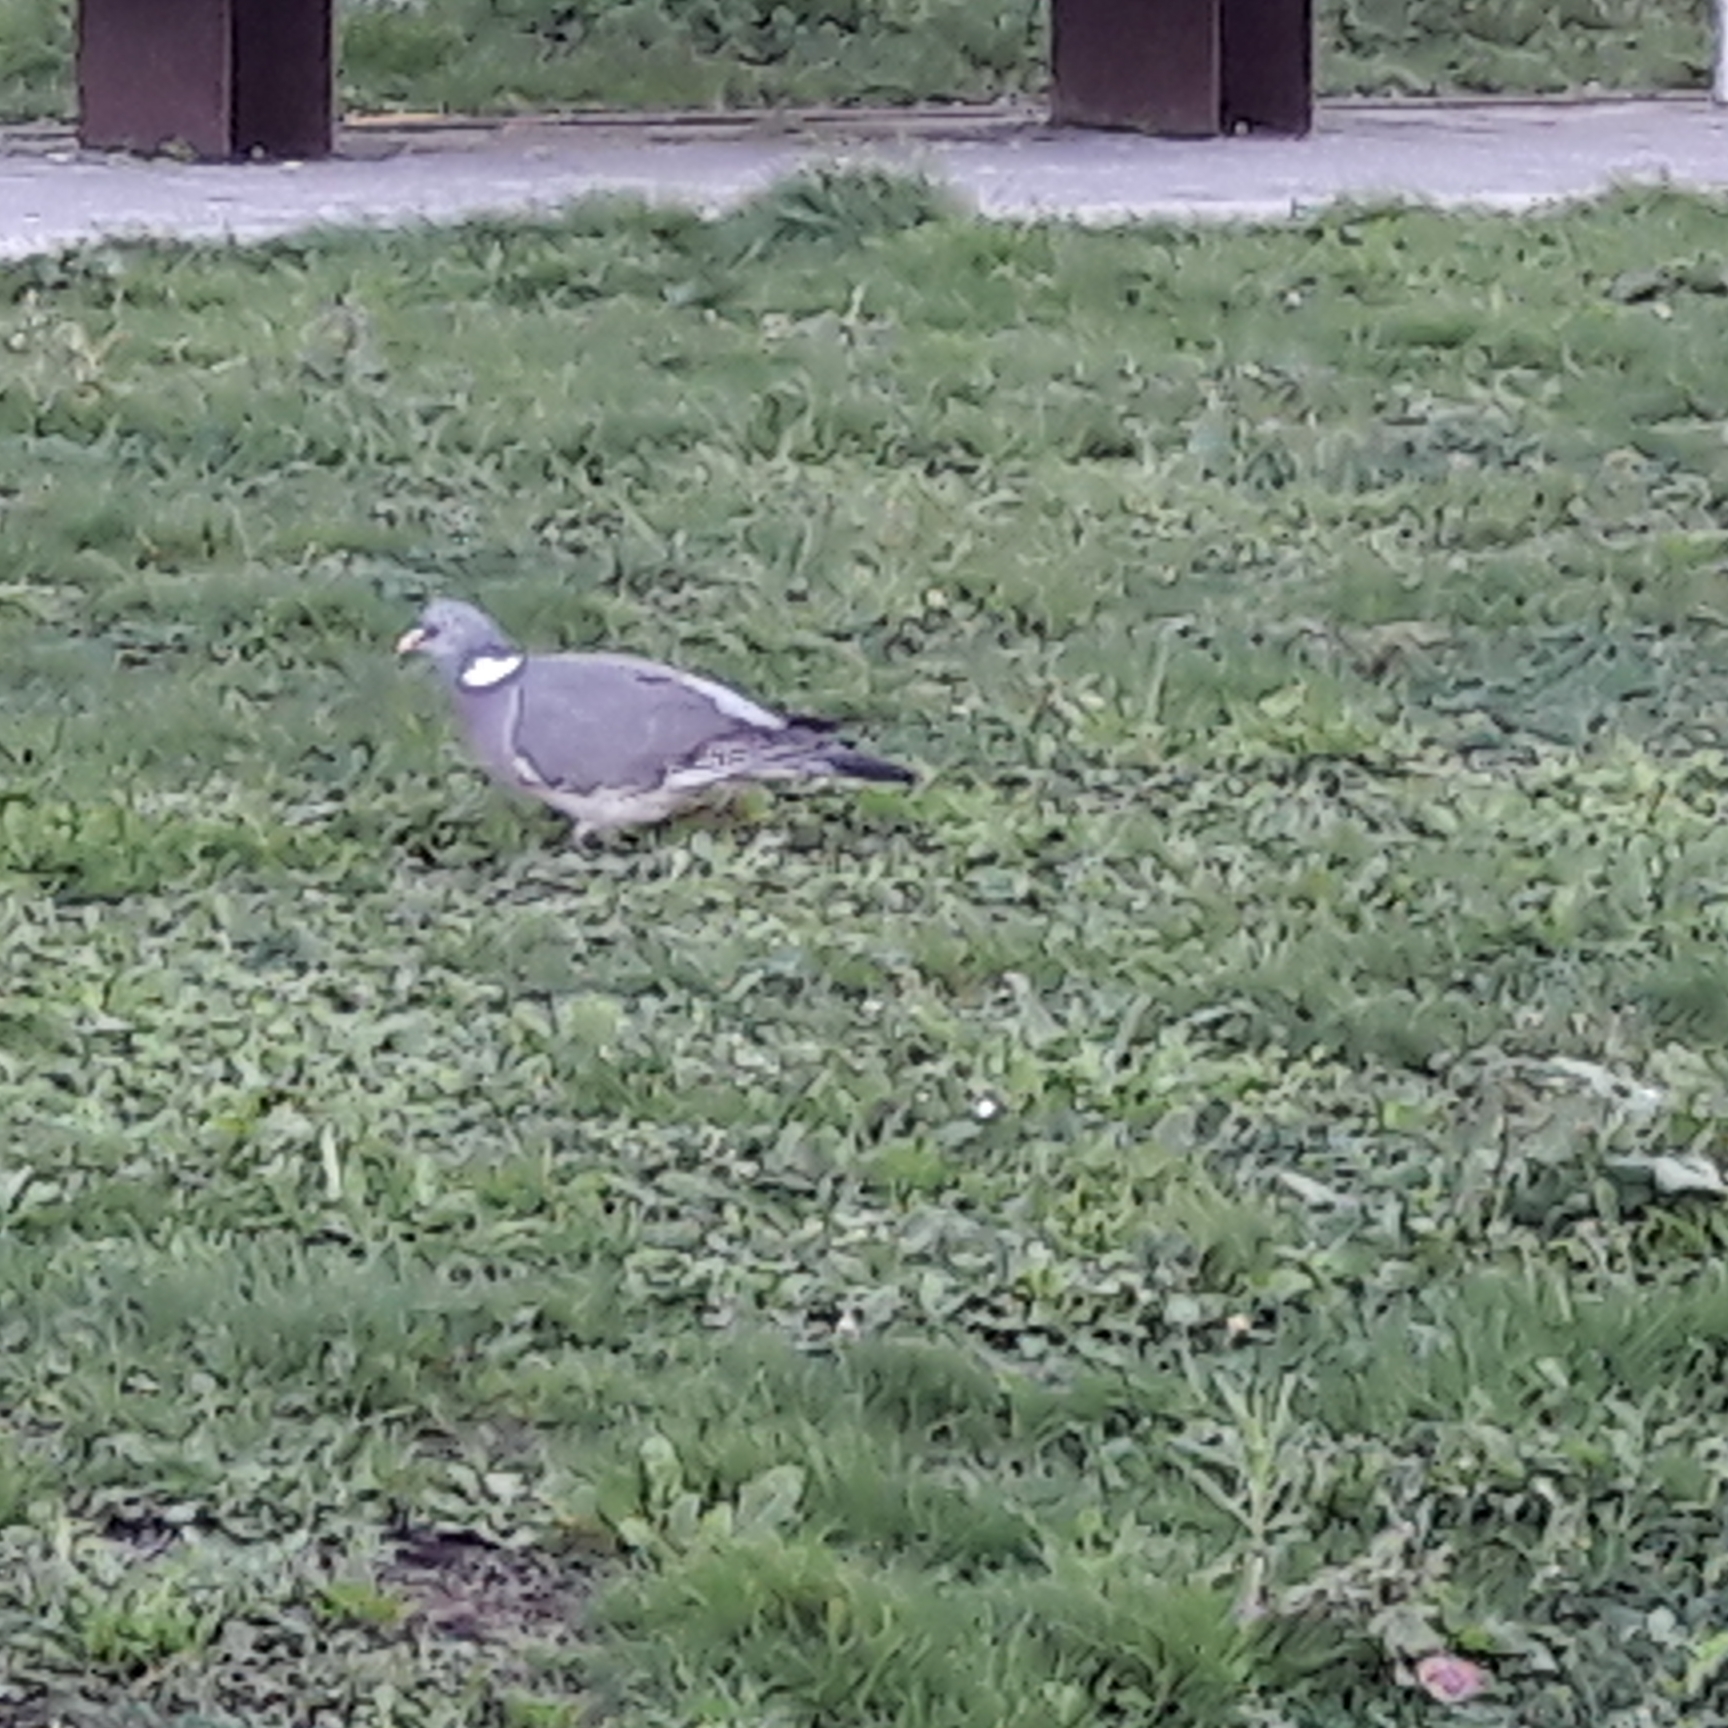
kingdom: Animalia
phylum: Chordata
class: Aves
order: Columbiformes
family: Columbidae
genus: Columba
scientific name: Columba palumbus
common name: Common wood pigeon
